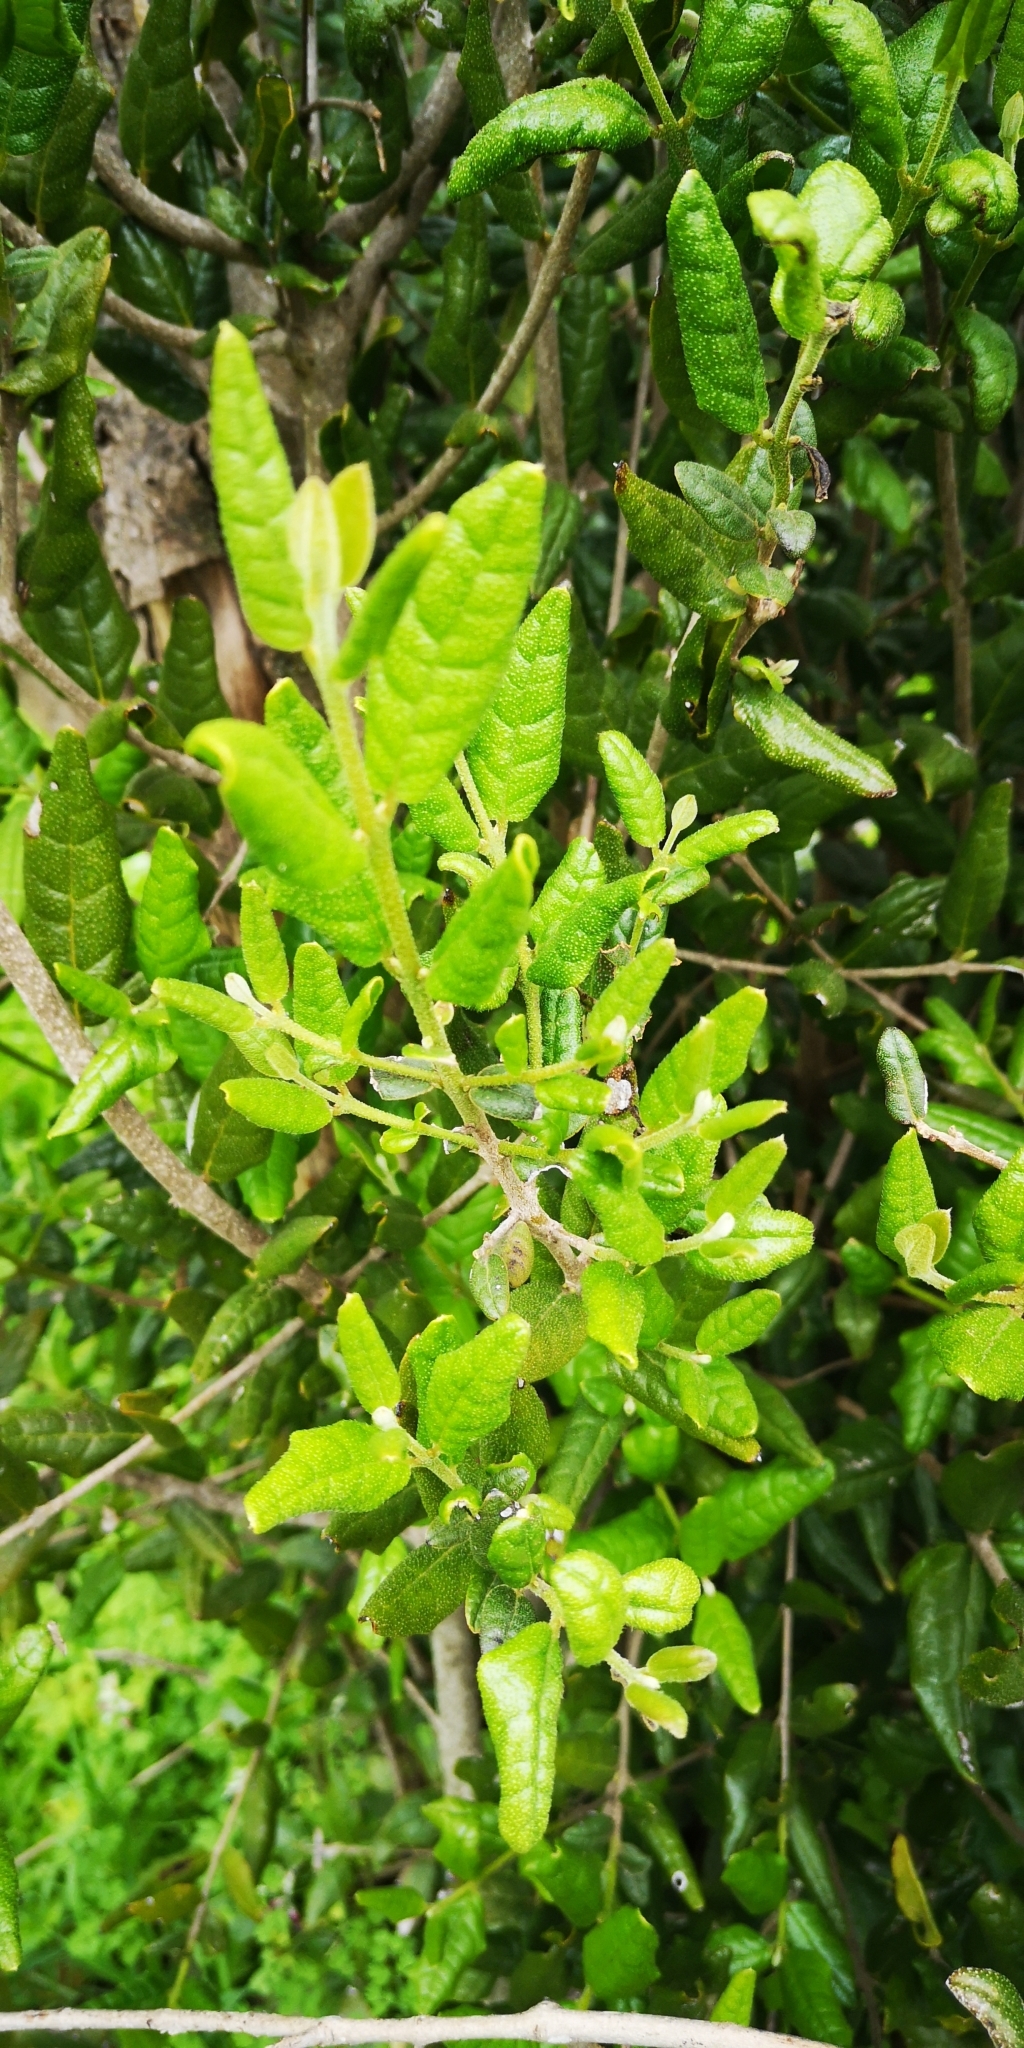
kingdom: Plantae
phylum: Tracheophyta
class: Magnoliopsida
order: Laurales
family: Monimiaceae
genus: Peumus
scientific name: Peumus boldus
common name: Boldo
